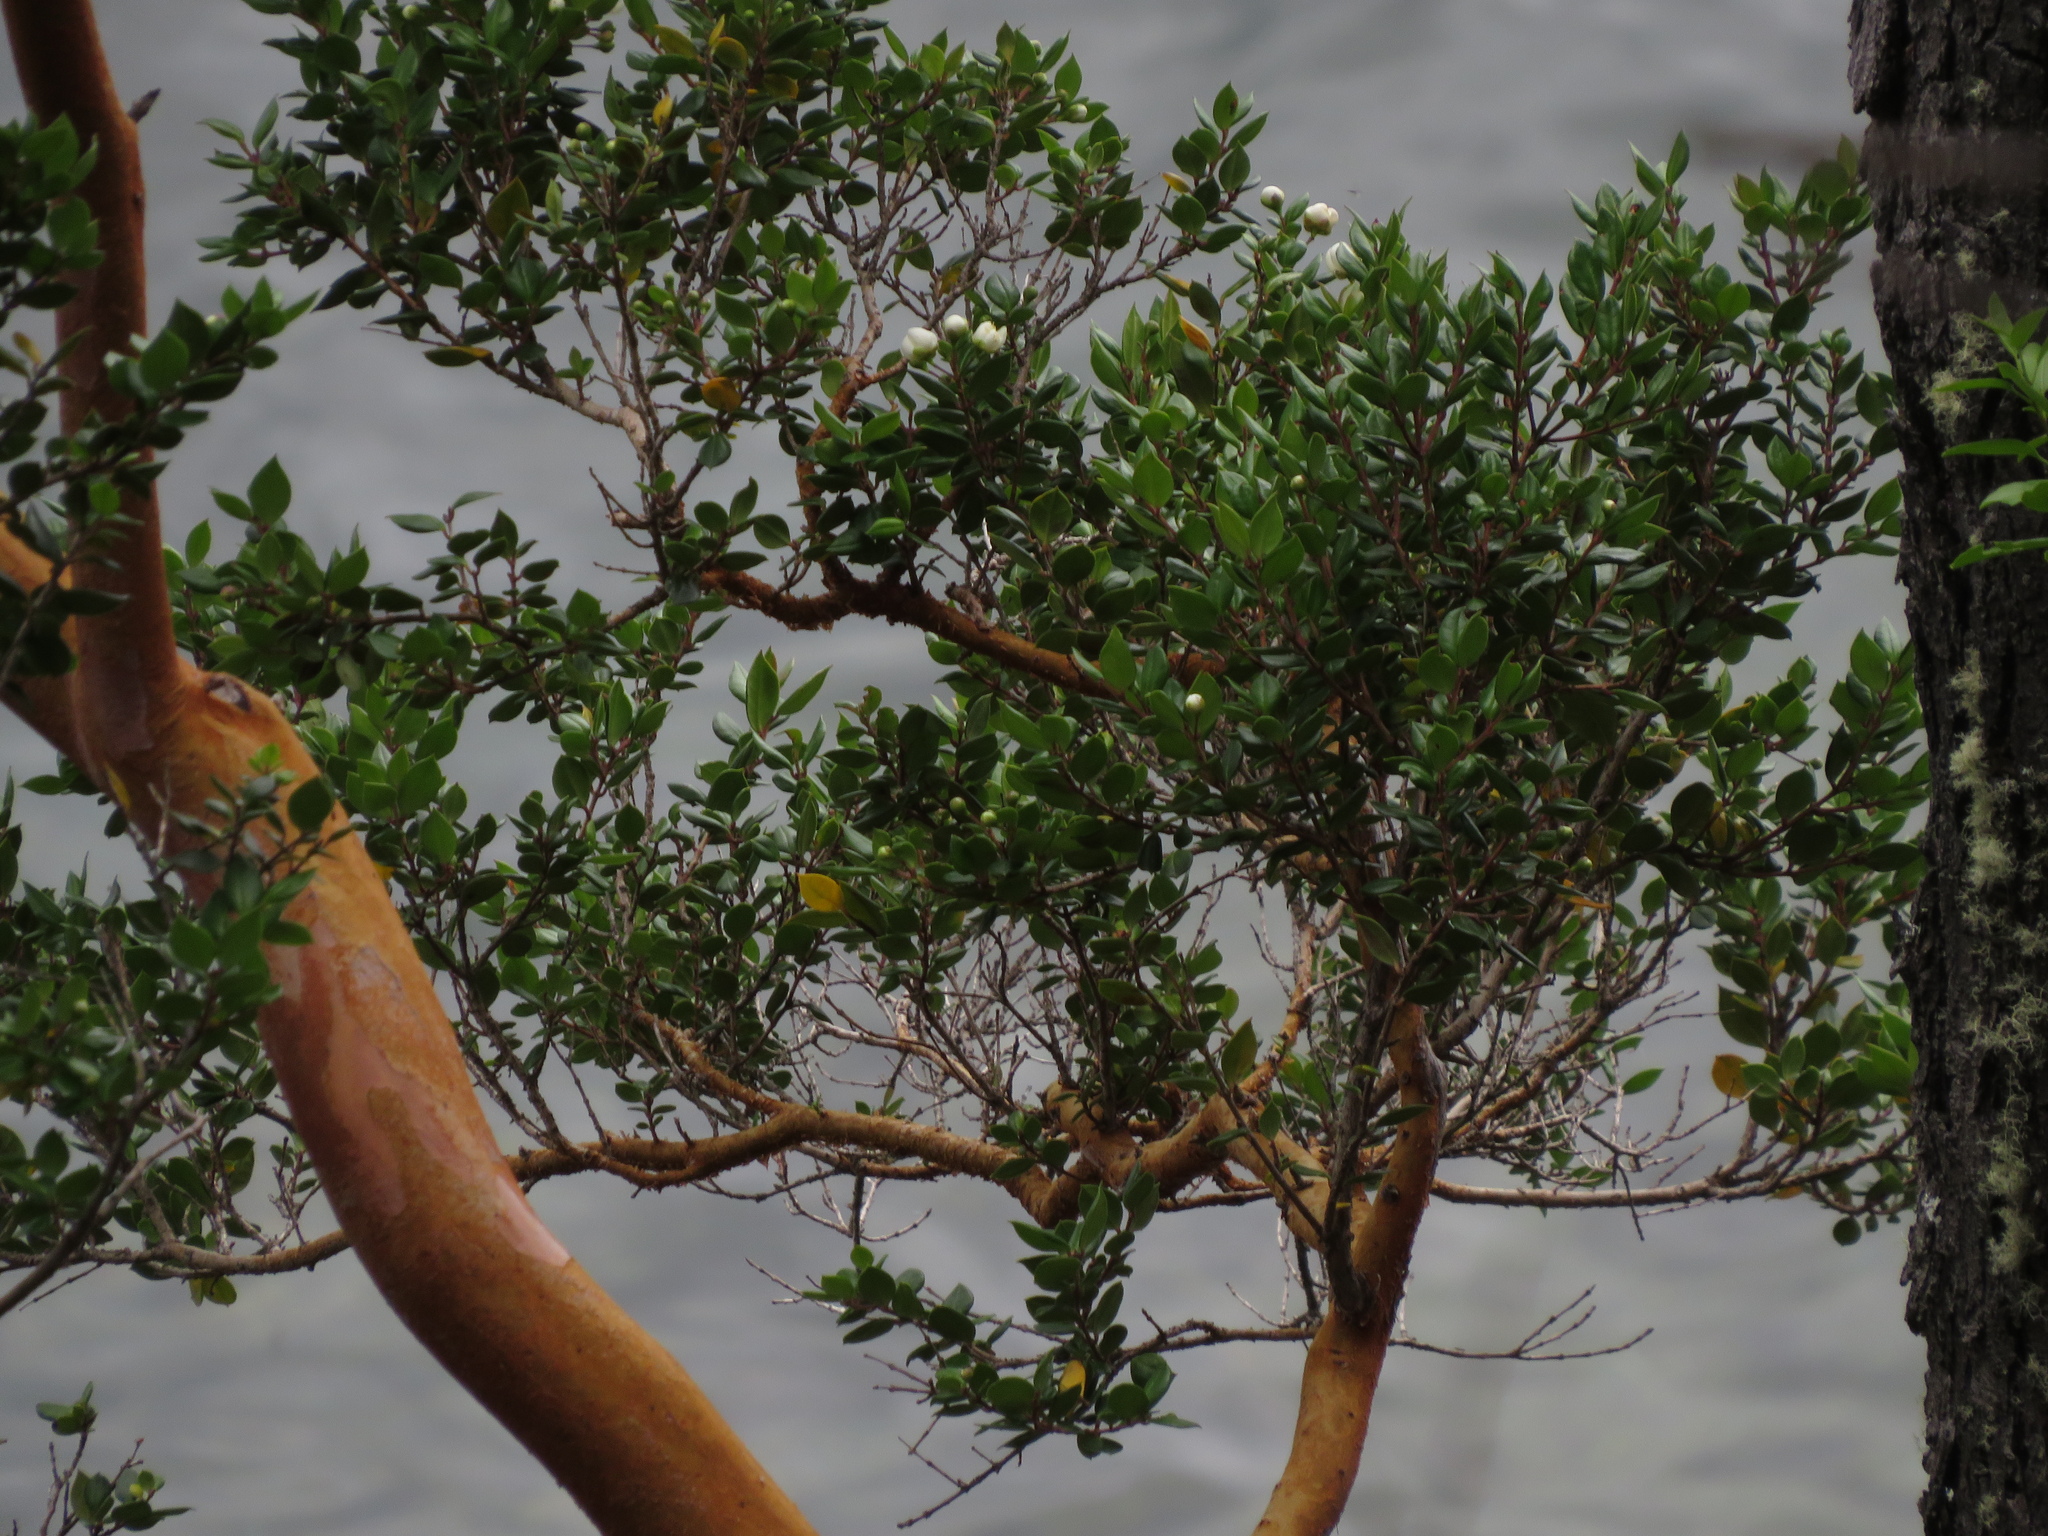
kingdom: Plantae
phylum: Tracheophyta
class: Magnoliopsida
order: Myrtales
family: Myrtaceae
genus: Luma
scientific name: Luma apiculata
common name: Chilean myrtle
